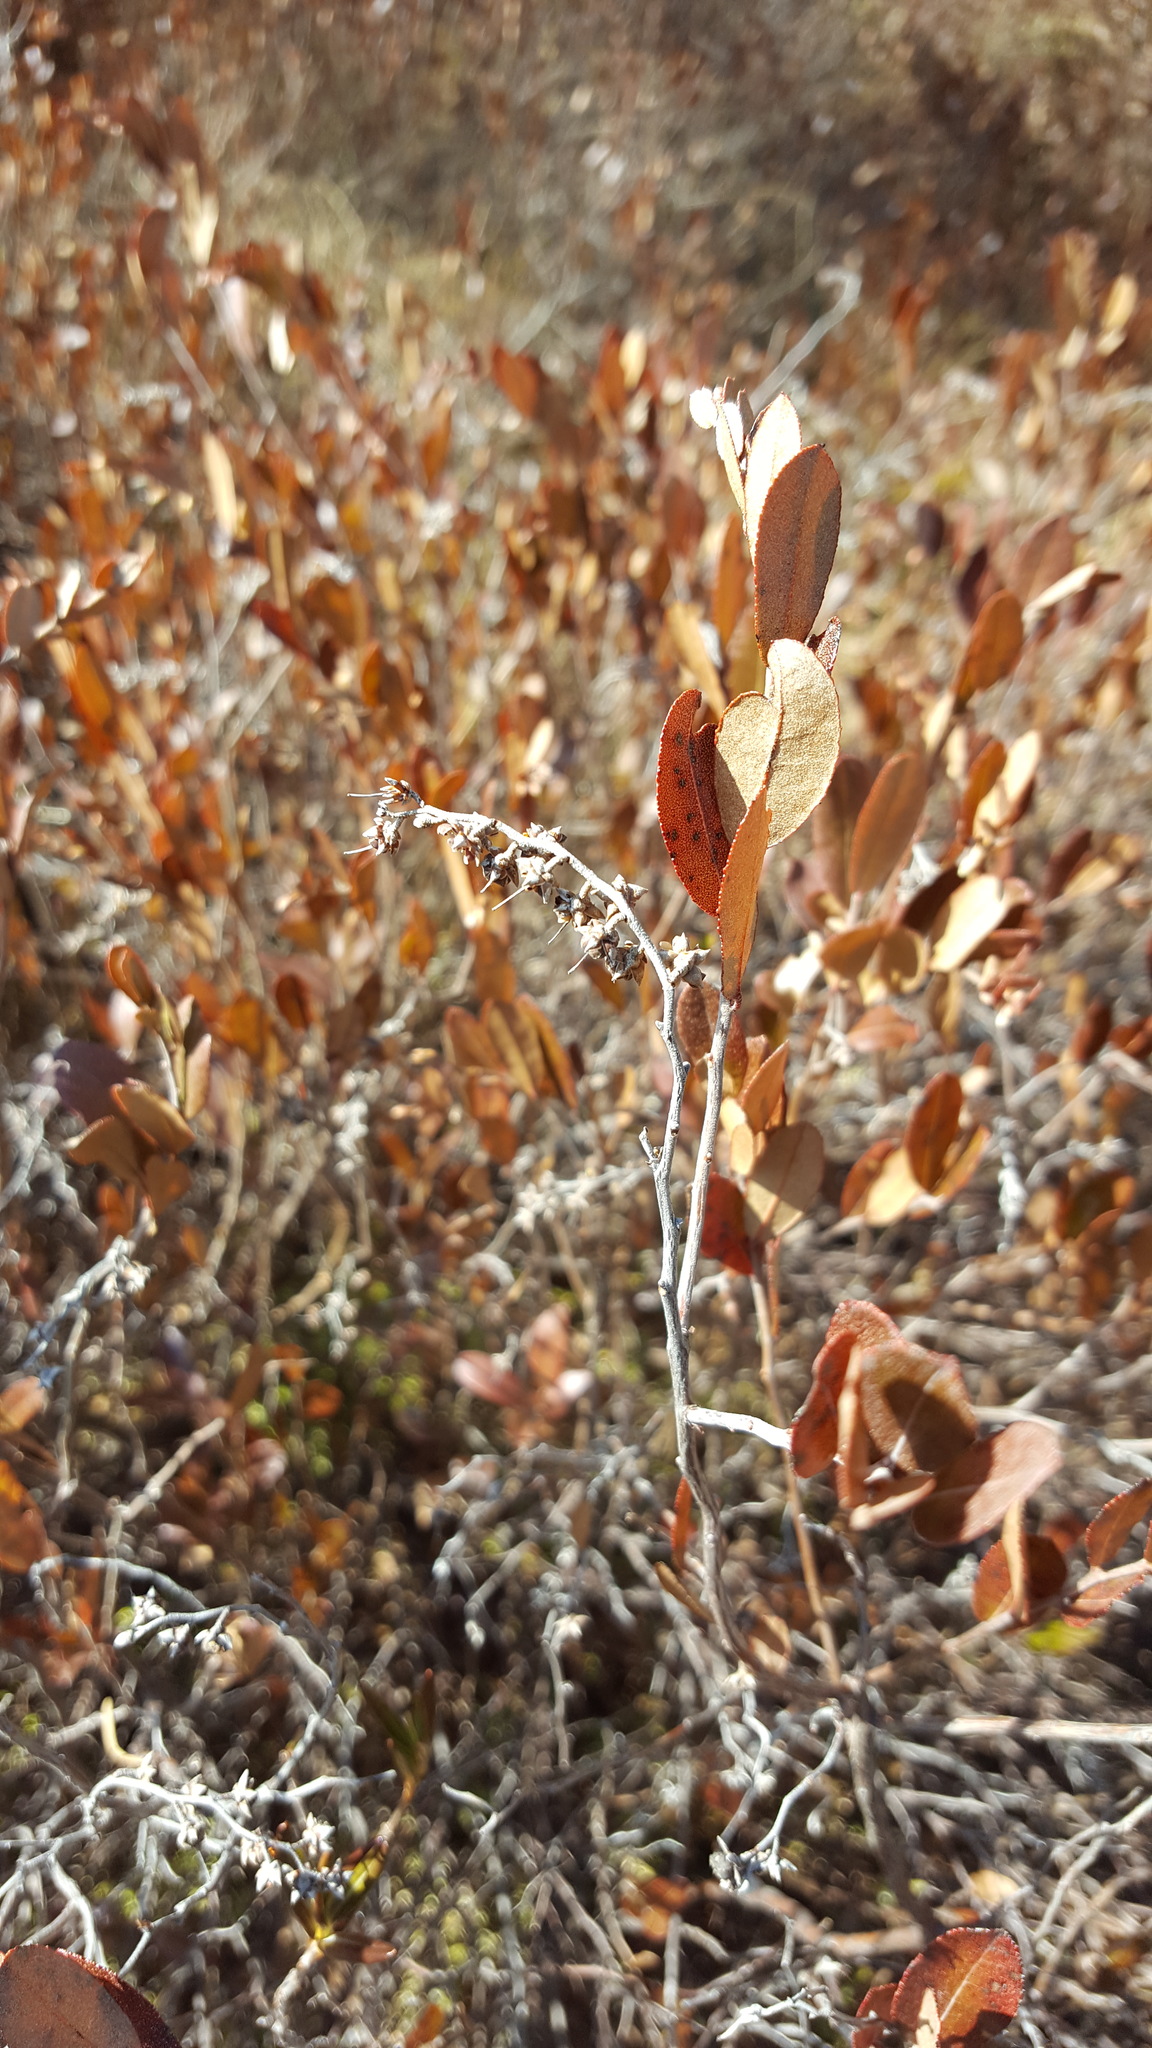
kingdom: Plantae
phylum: Tracheophyta
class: Magnoliopsida
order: Ericales
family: Ericaceae
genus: Chamaedaphne
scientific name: Chamaedaphne calyculata
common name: Leatherleaf
